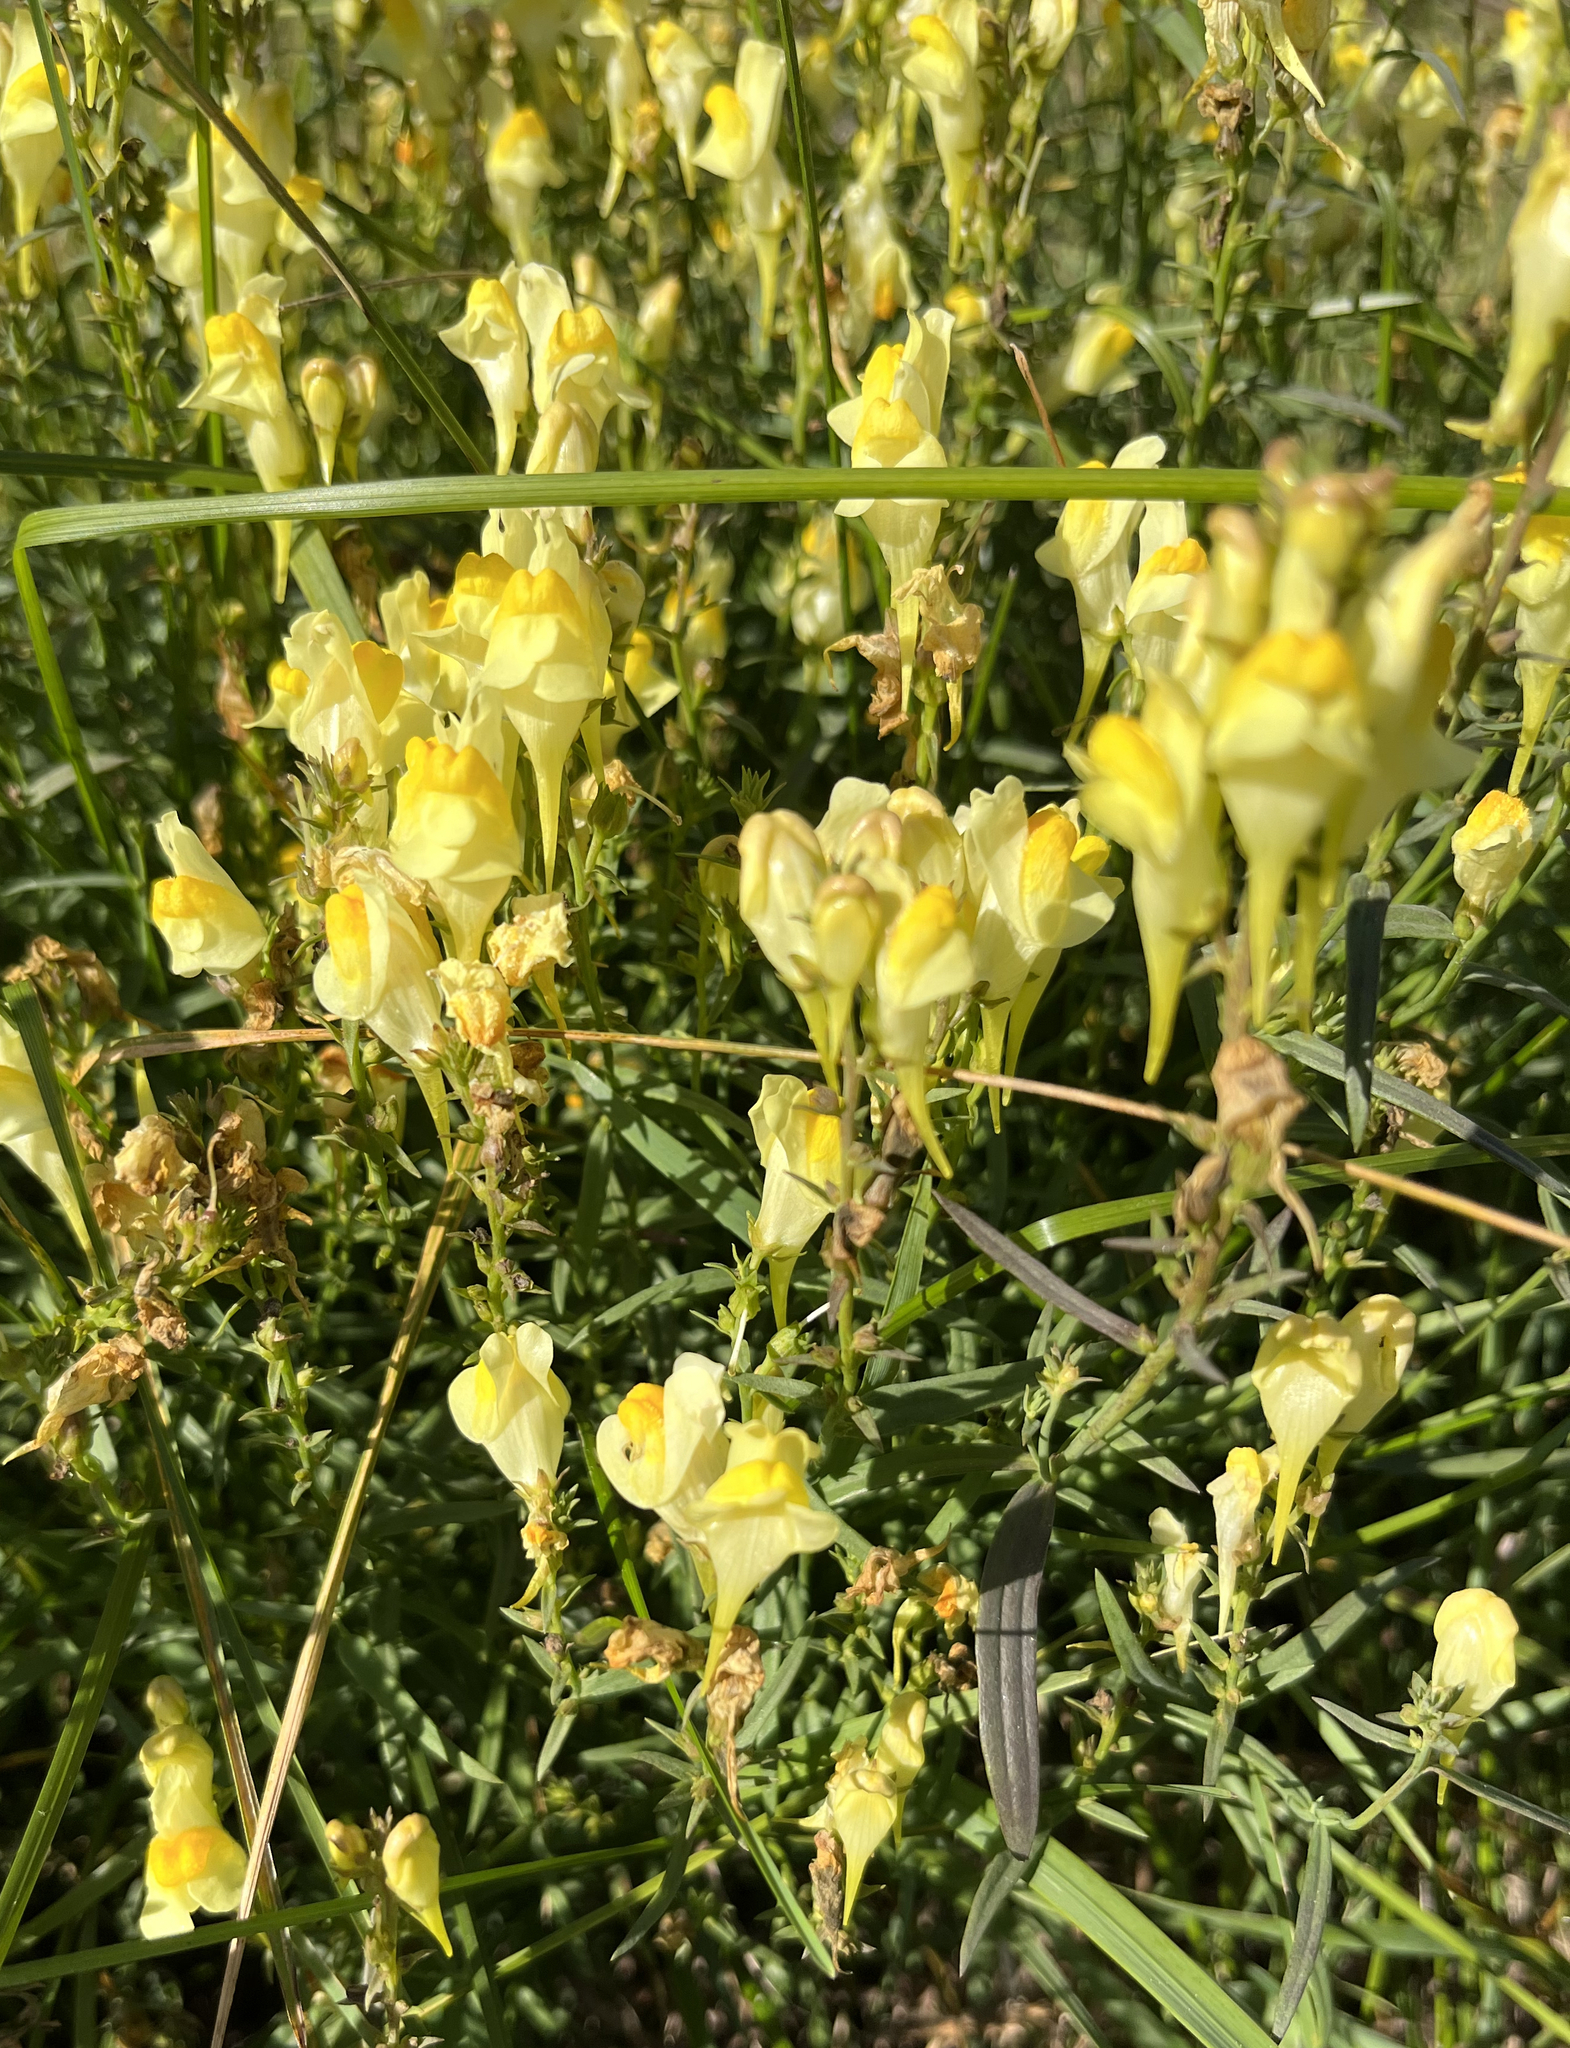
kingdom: Plantae
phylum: Tracheophyta
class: Magnoliopsida
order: Lamiales
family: Plantaginaceae
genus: Linaria
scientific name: Linaria vulgaris
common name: Butter and eggs
